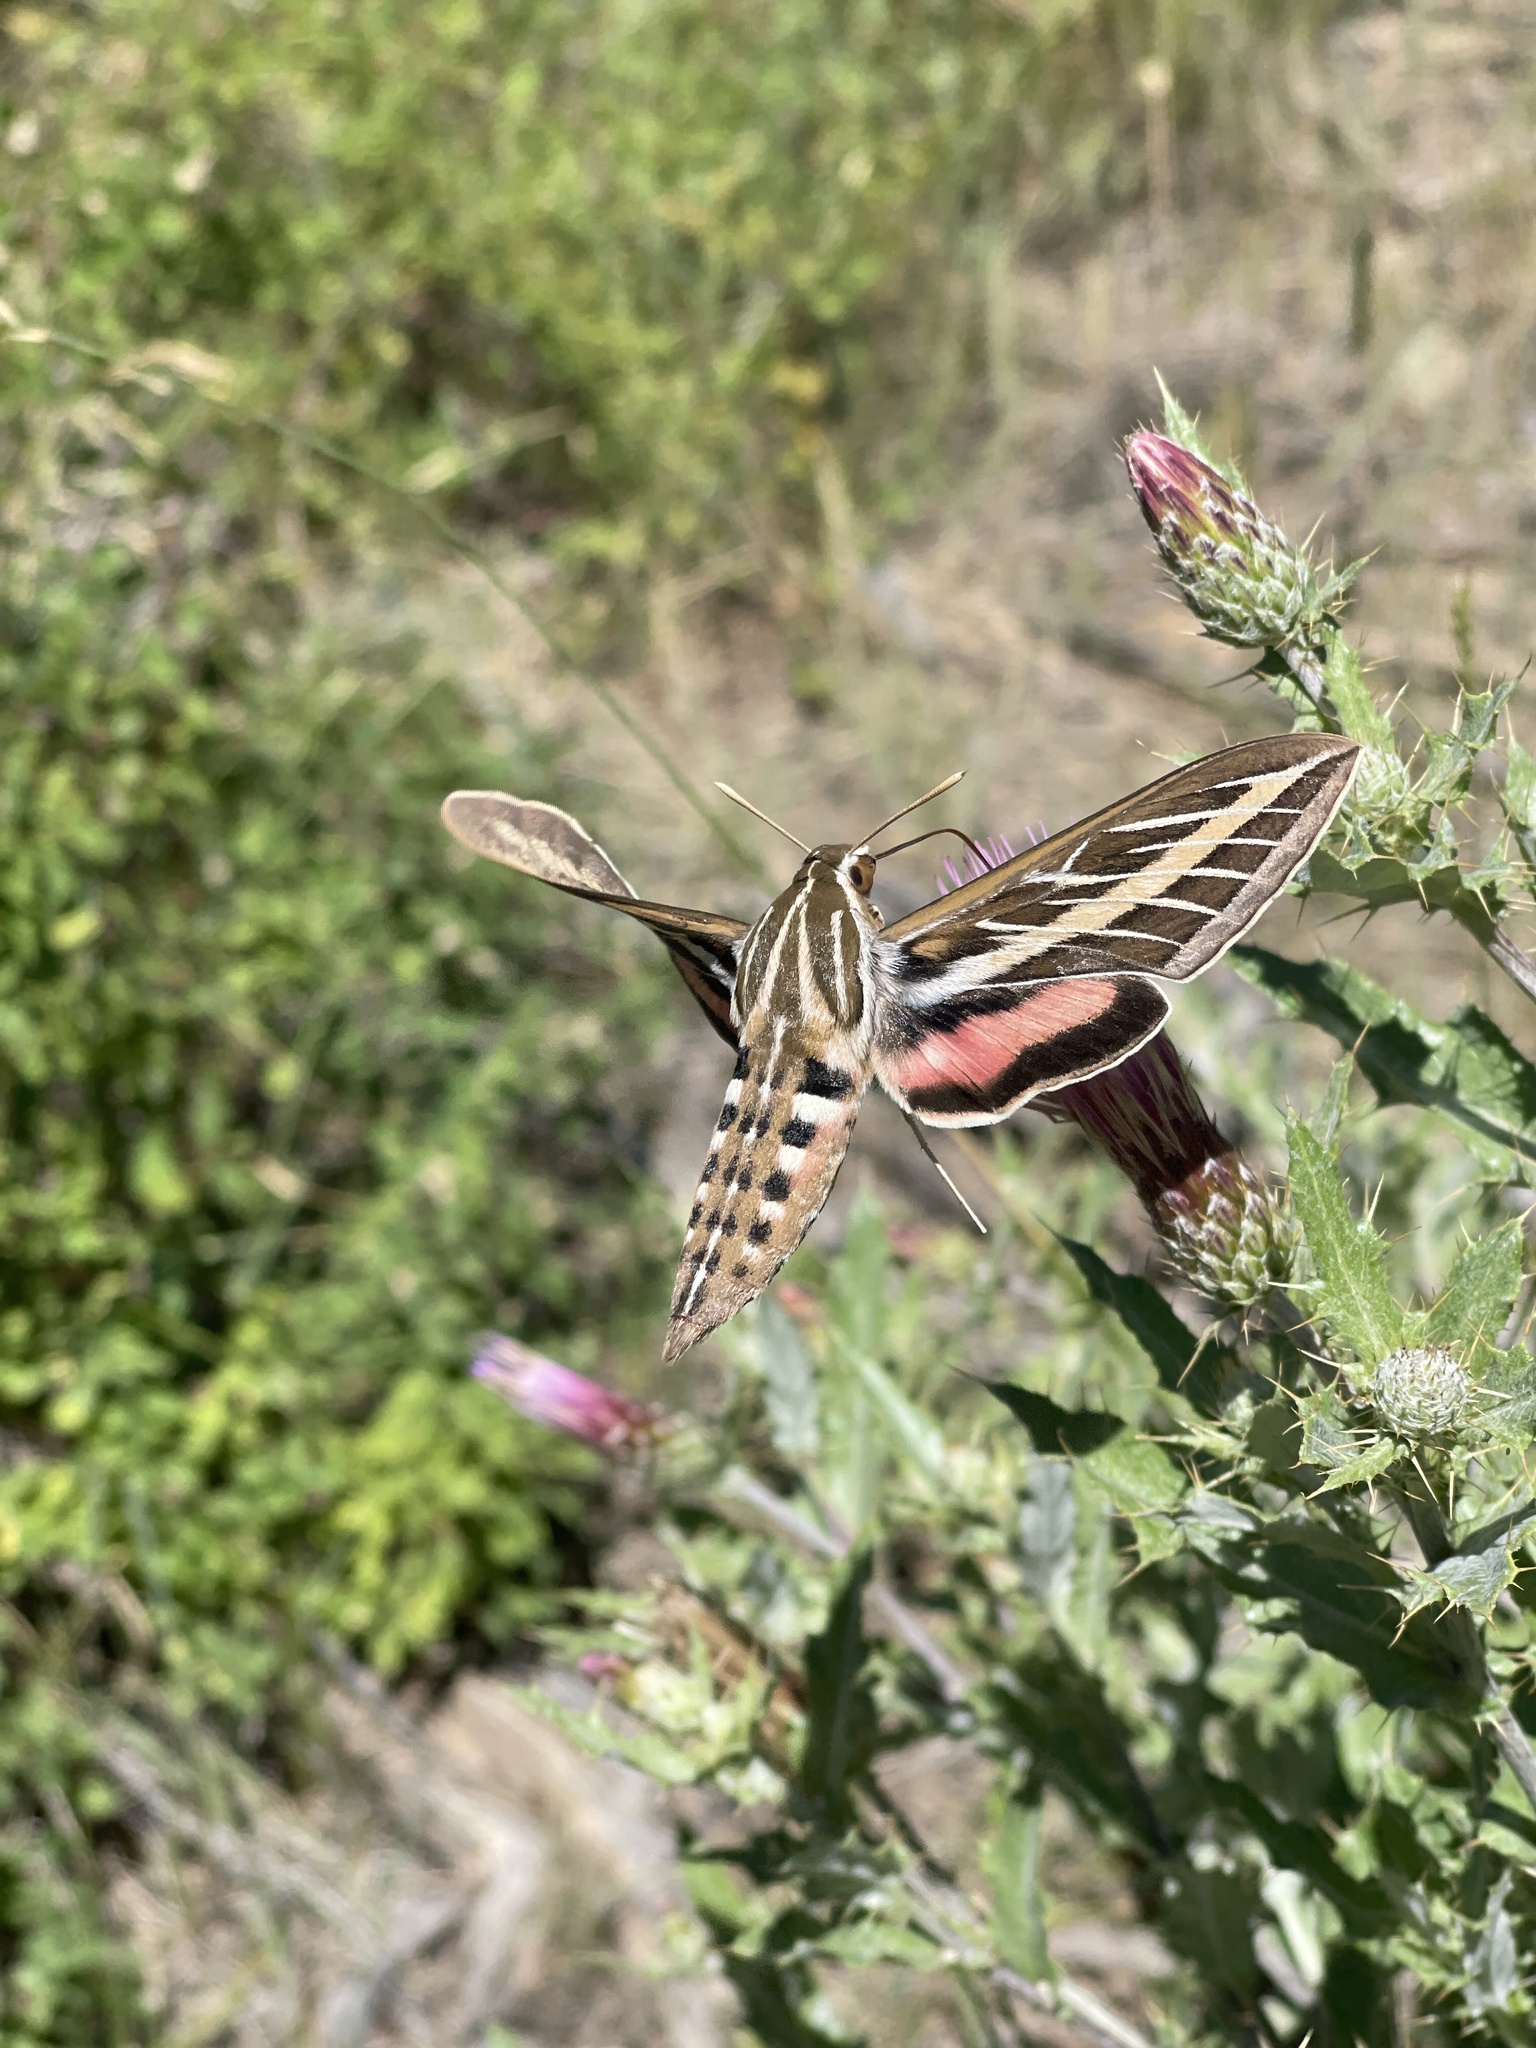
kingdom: Animalia
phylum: Arthropoda
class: Insecta
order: Lepidoptera
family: Sphingidae
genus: Hyles
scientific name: Hyles lineata
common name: White-lined sphinx
